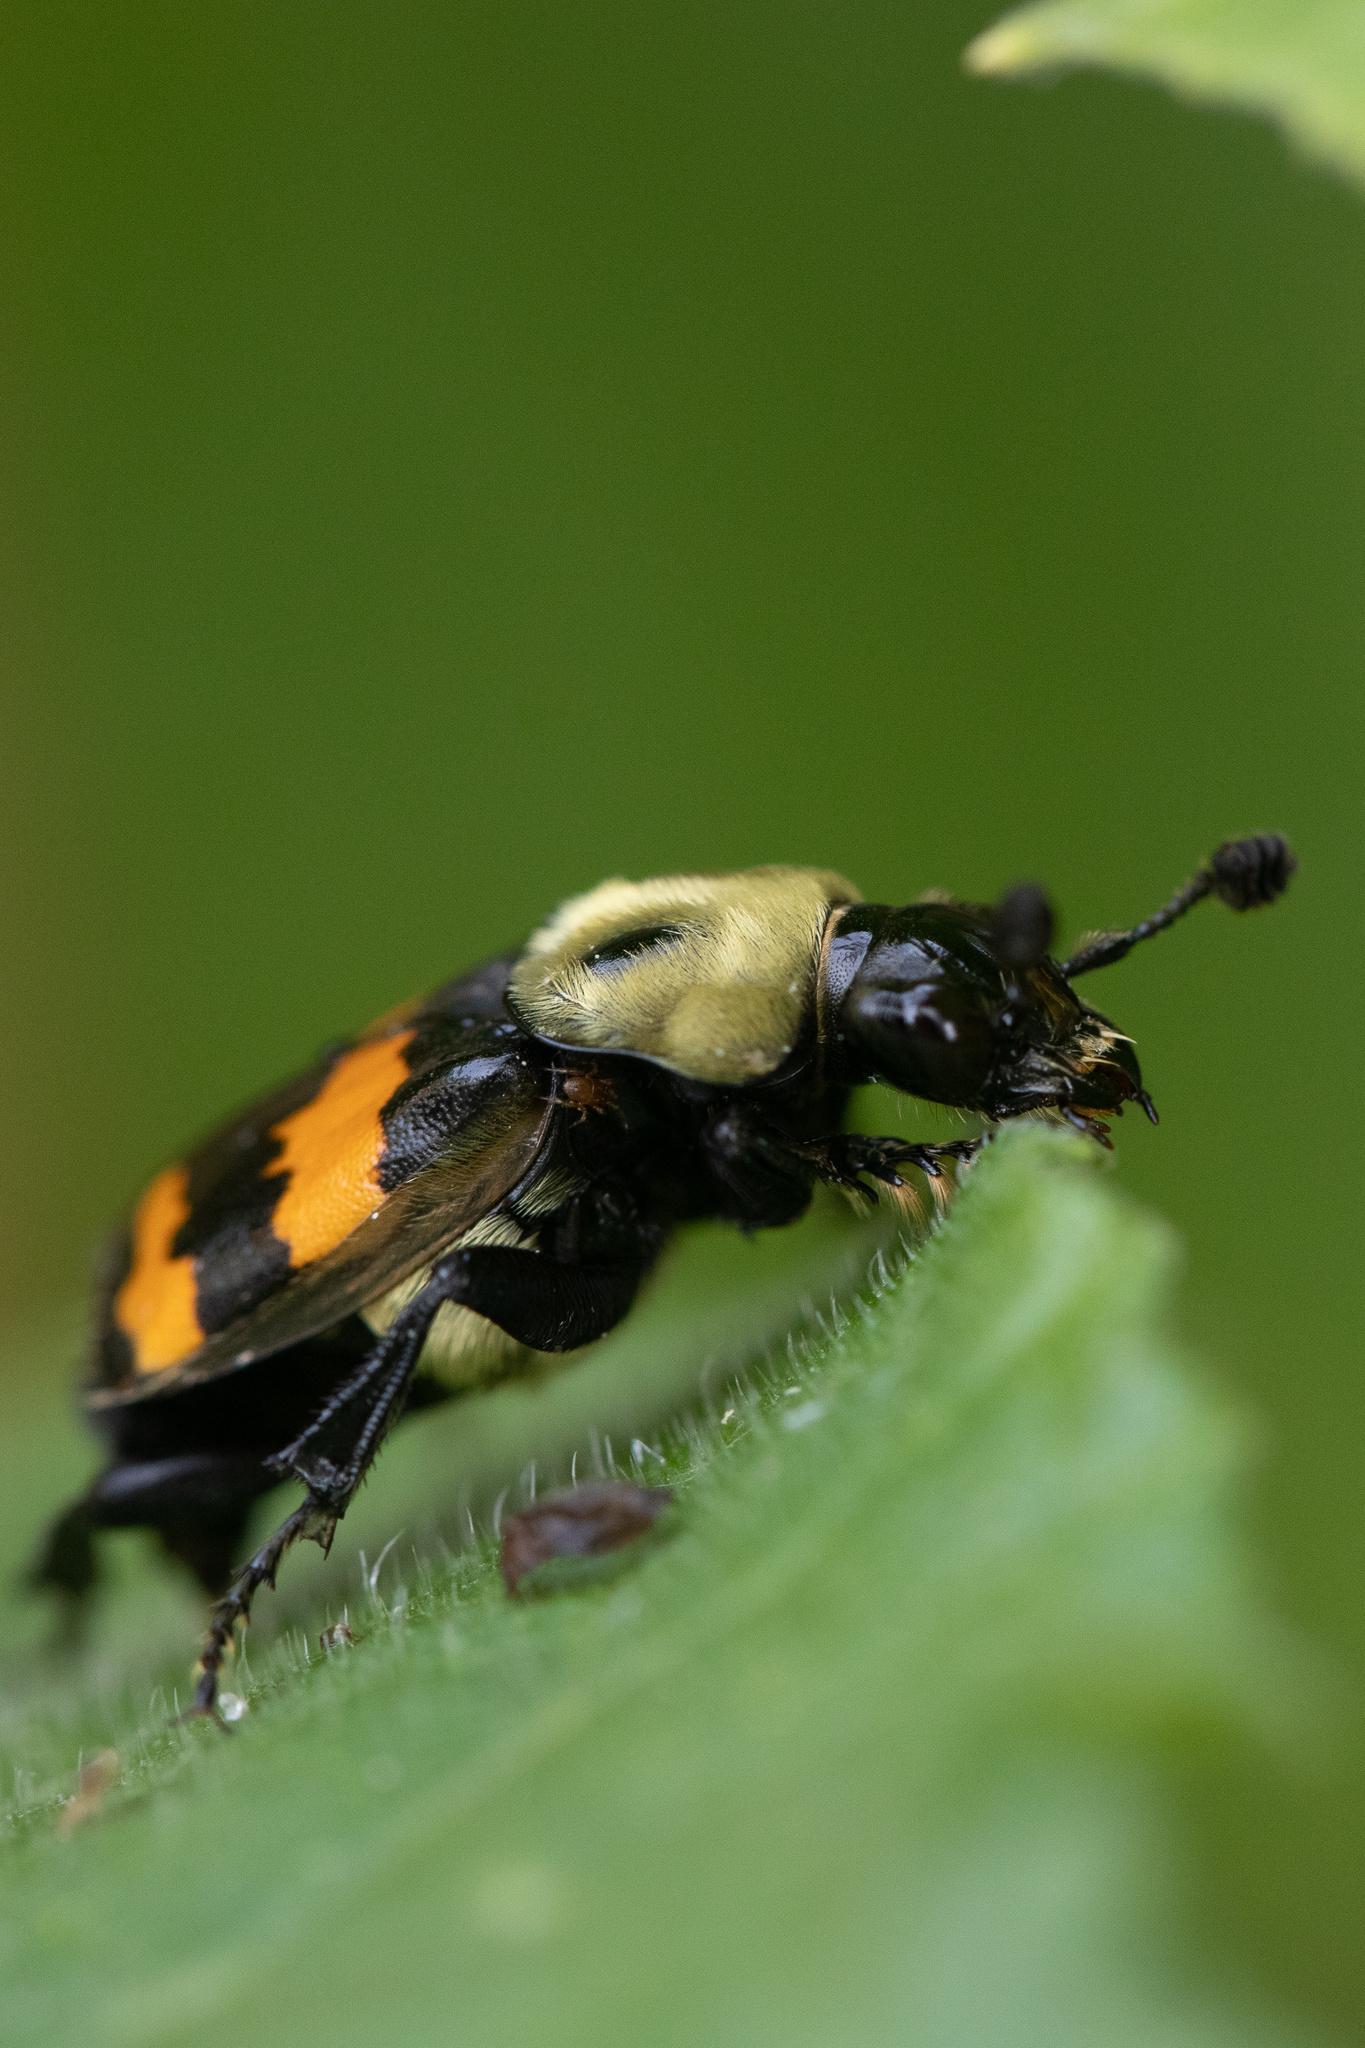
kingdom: Animalia
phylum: Arthropoda
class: Insecta
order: Coleoptera
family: Staphylinidae
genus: Nicrophorus
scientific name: Nicrophorus tomentosus
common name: Tomentose burying beetle
